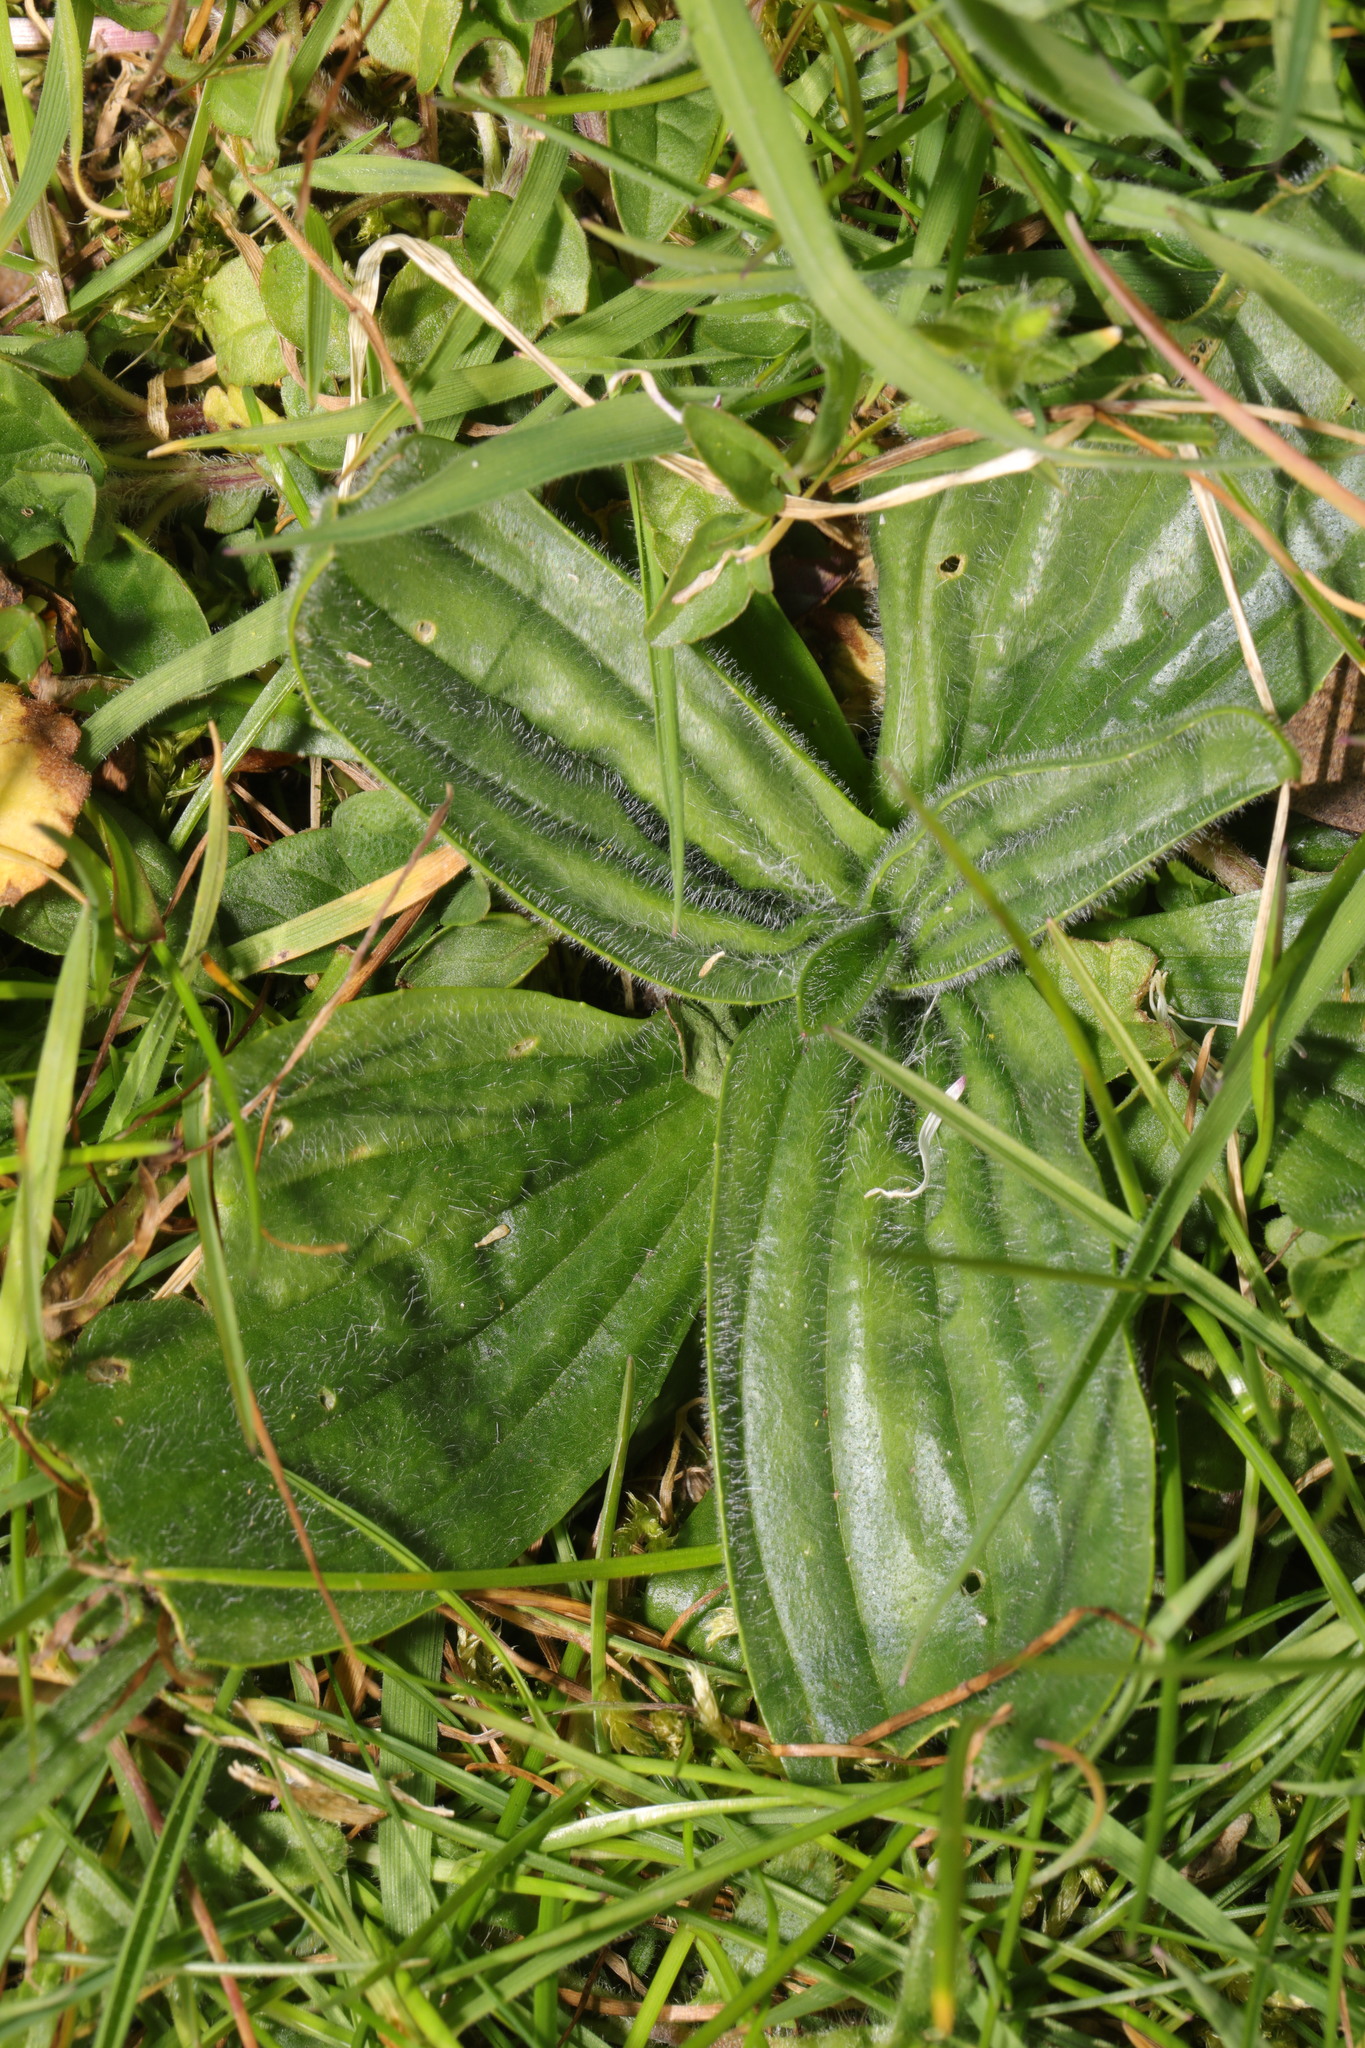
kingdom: Plantae
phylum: Tracheophyta
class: Magnoliopsida
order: Lamiales
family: Plantaginaceae
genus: Plantago
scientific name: Plantago lanceolata
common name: Ribwort plantain
